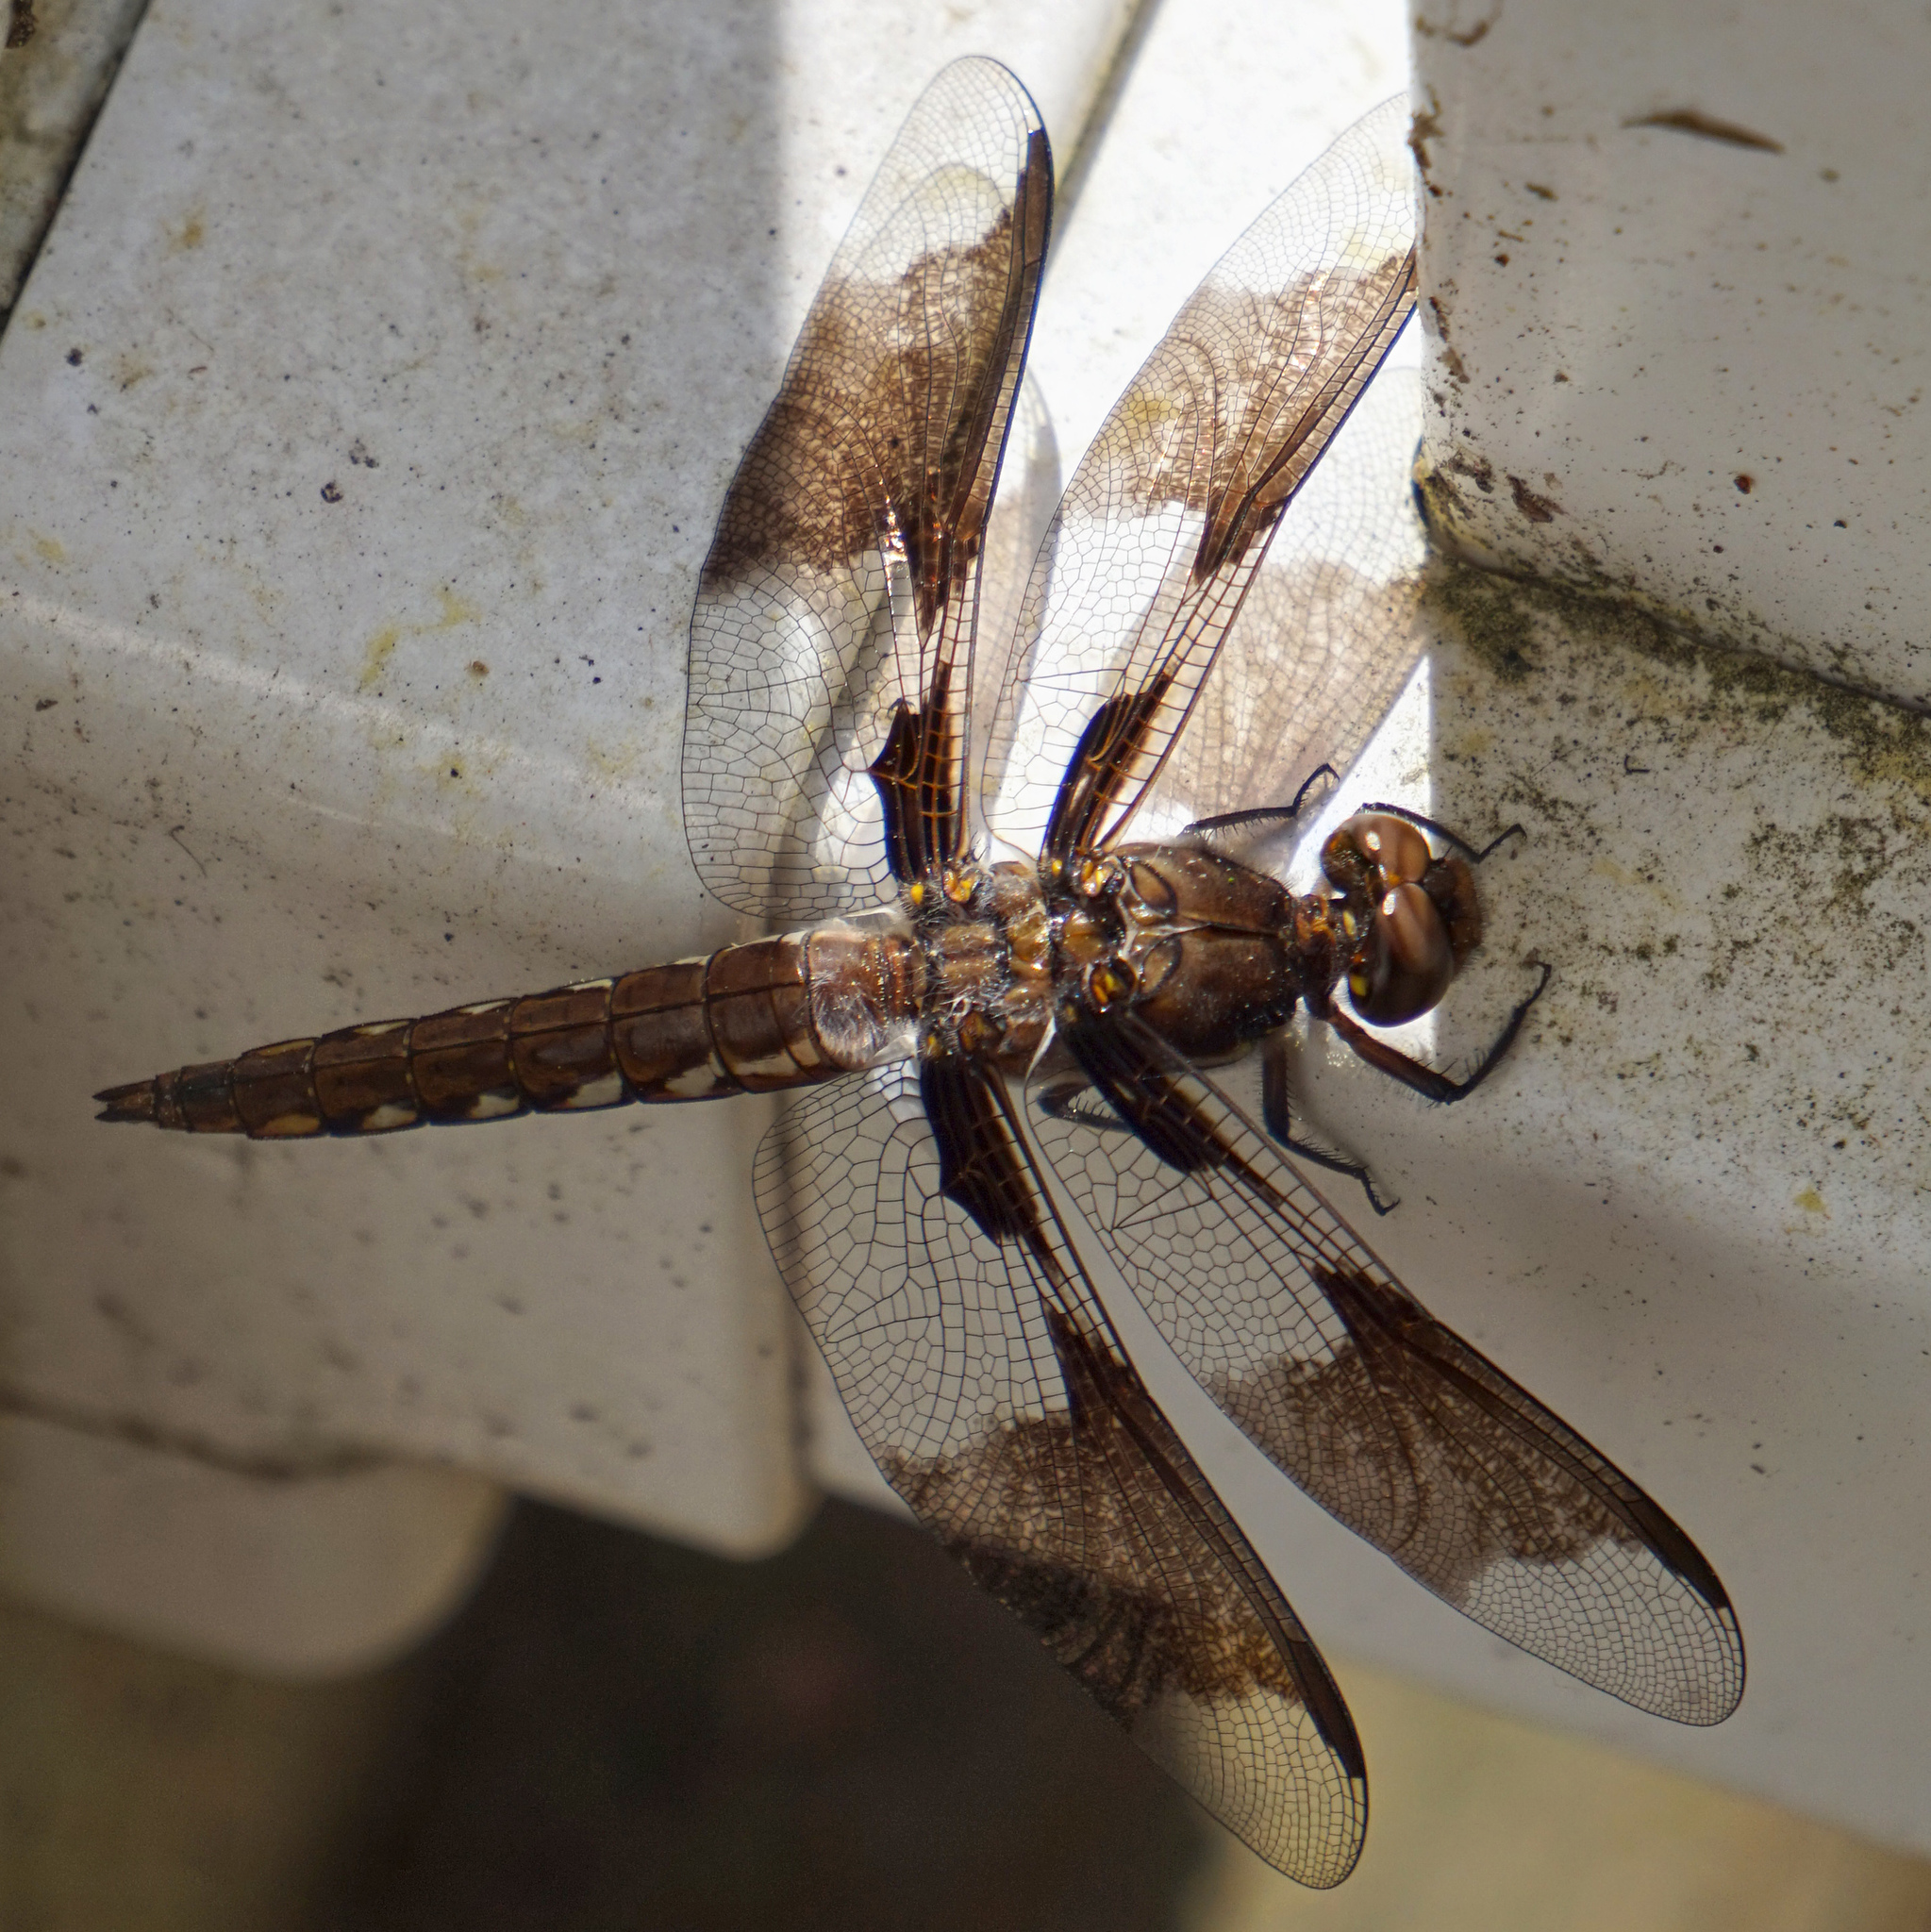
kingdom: Animalia
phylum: Arthropoda
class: Insecta
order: Odonata
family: Libellulidae
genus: Plathemis
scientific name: Plathemis lydia
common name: Common whitetail
